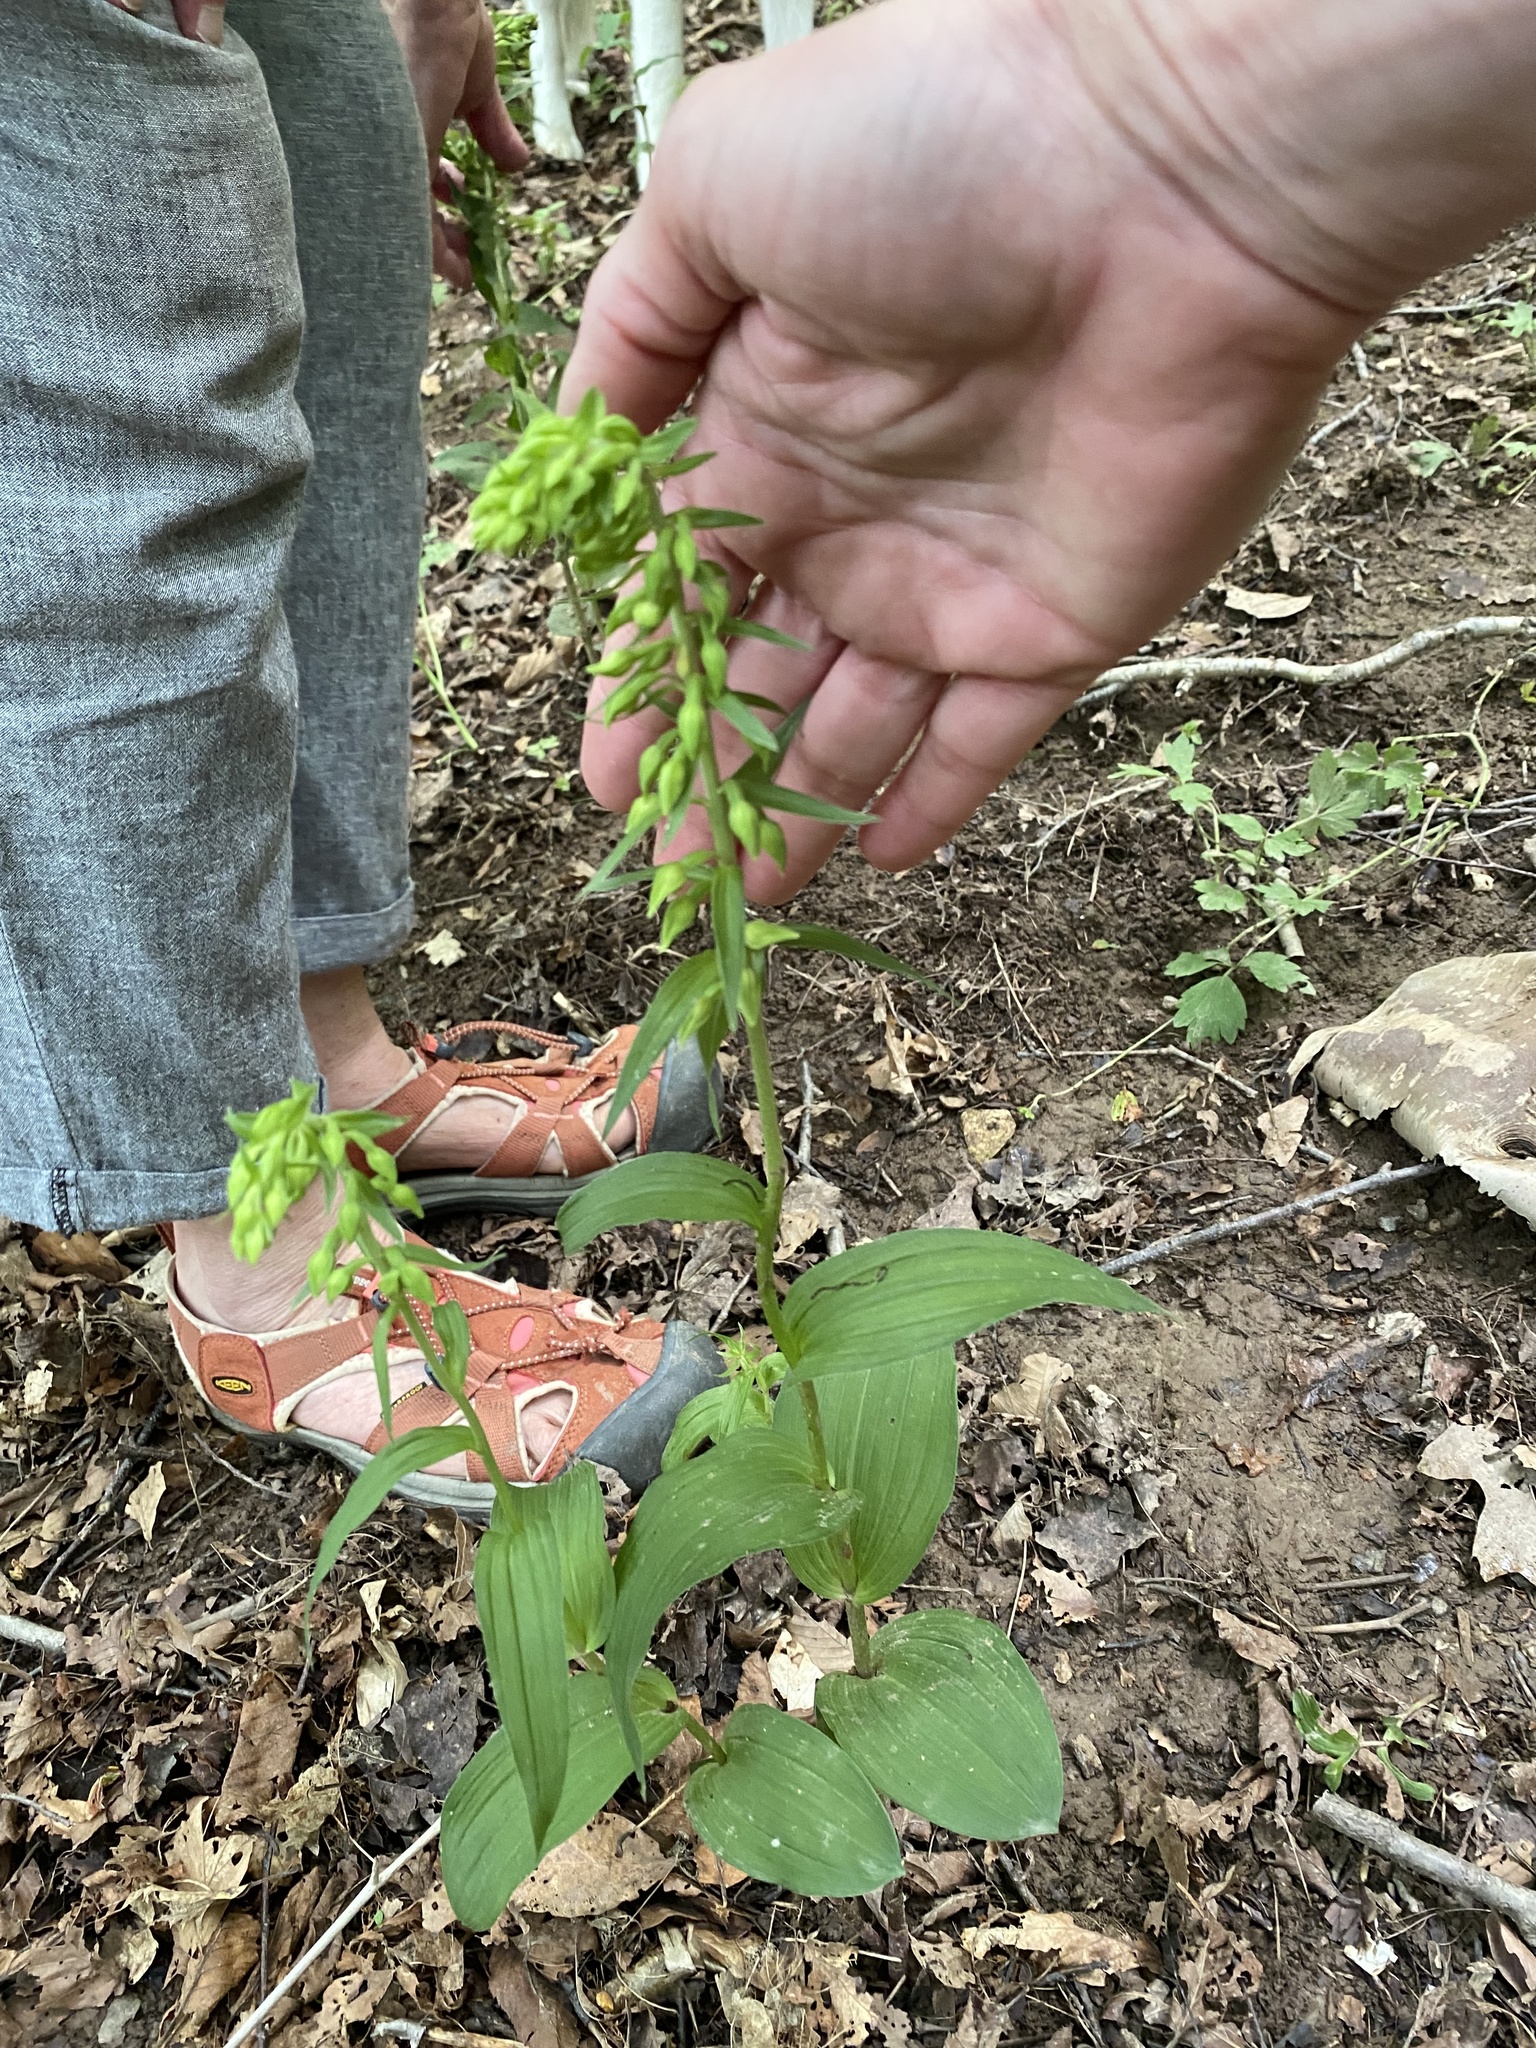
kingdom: Plantae
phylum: Tracheophyta
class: Liliopsida
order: Asparagales
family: Orchidaceae
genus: Epipactis
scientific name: Epipactis helleborine
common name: Broad-leaved helleborine
